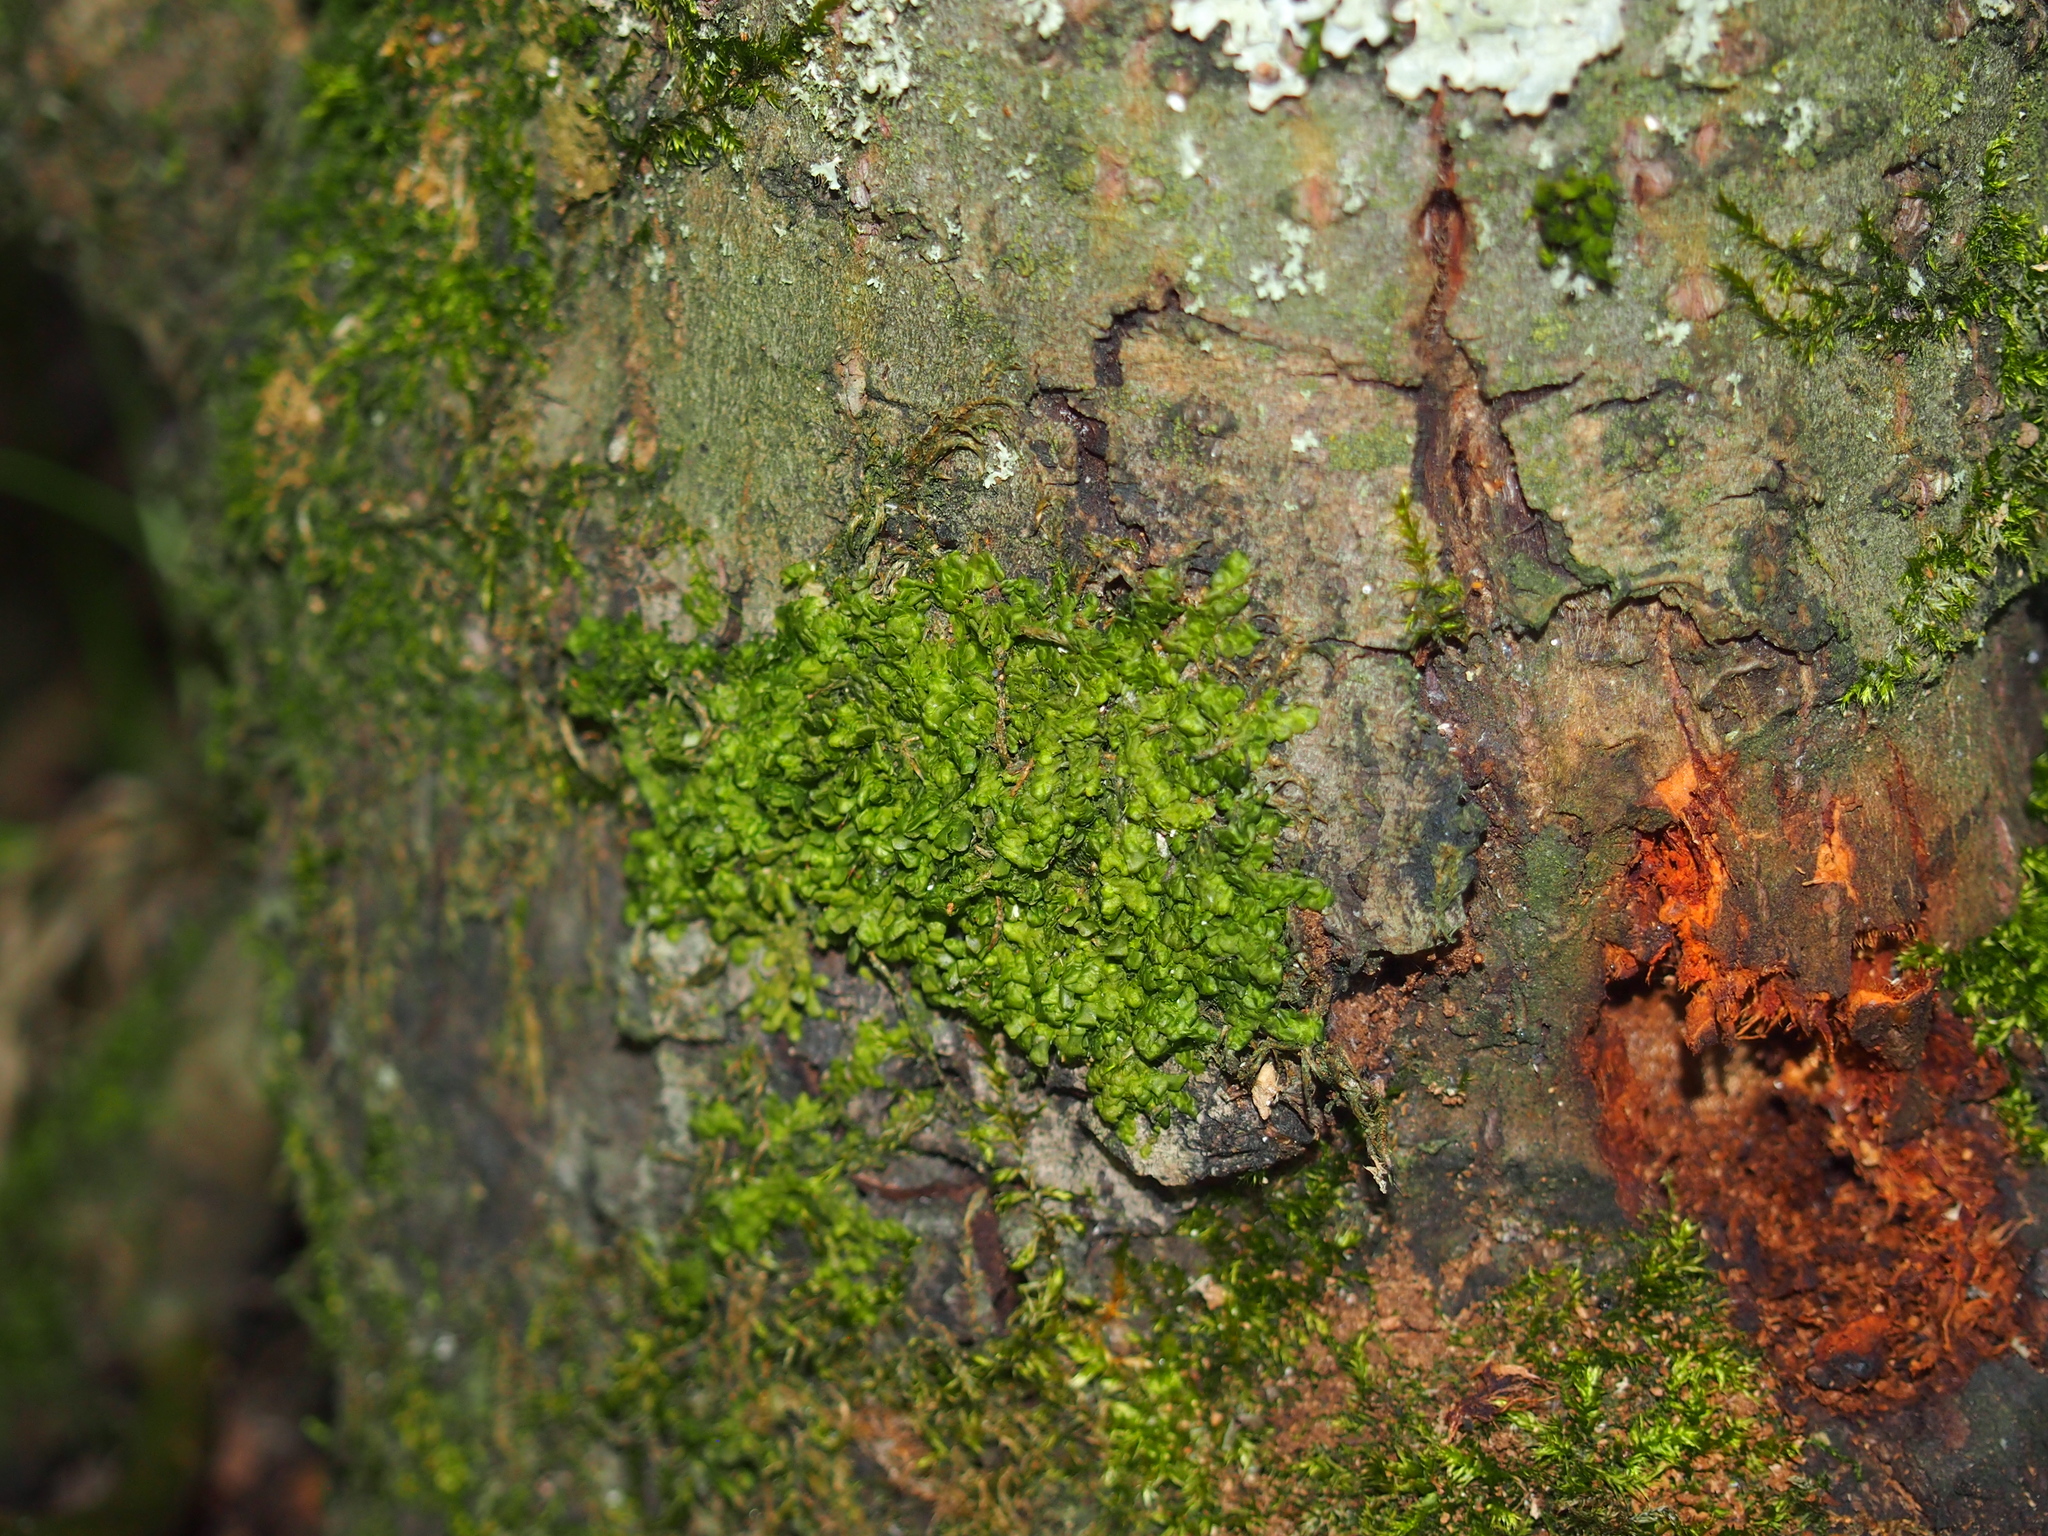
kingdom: Plantae
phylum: Marchantiophyta
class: Jungermanniopsida
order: Porellales
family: Porellaceae
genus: Porella
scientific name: Porella platyphylla
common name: Wall scalewort
